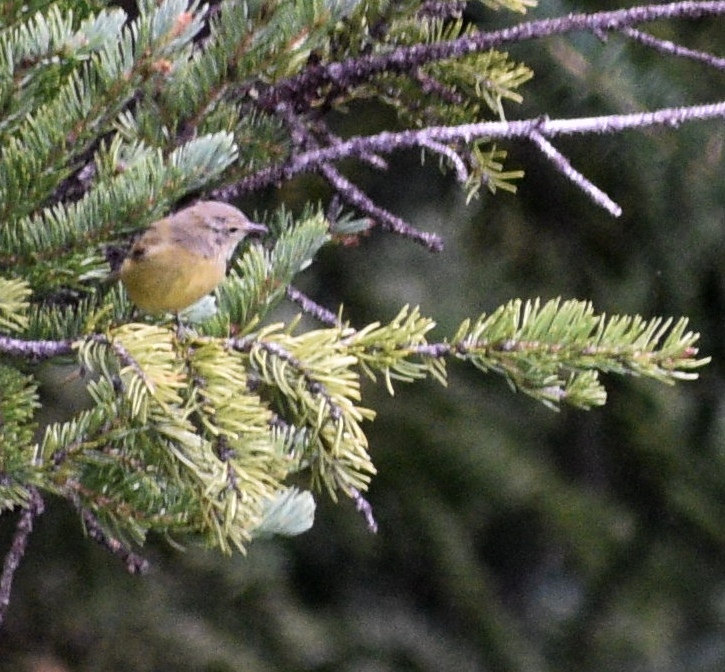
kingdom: Animalia
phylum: Chordata
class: Aves
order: Passeriformes
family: Parulidae
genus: Leiothlypis
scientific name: Leiothlypis celata
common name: Orange-crowned warbler
